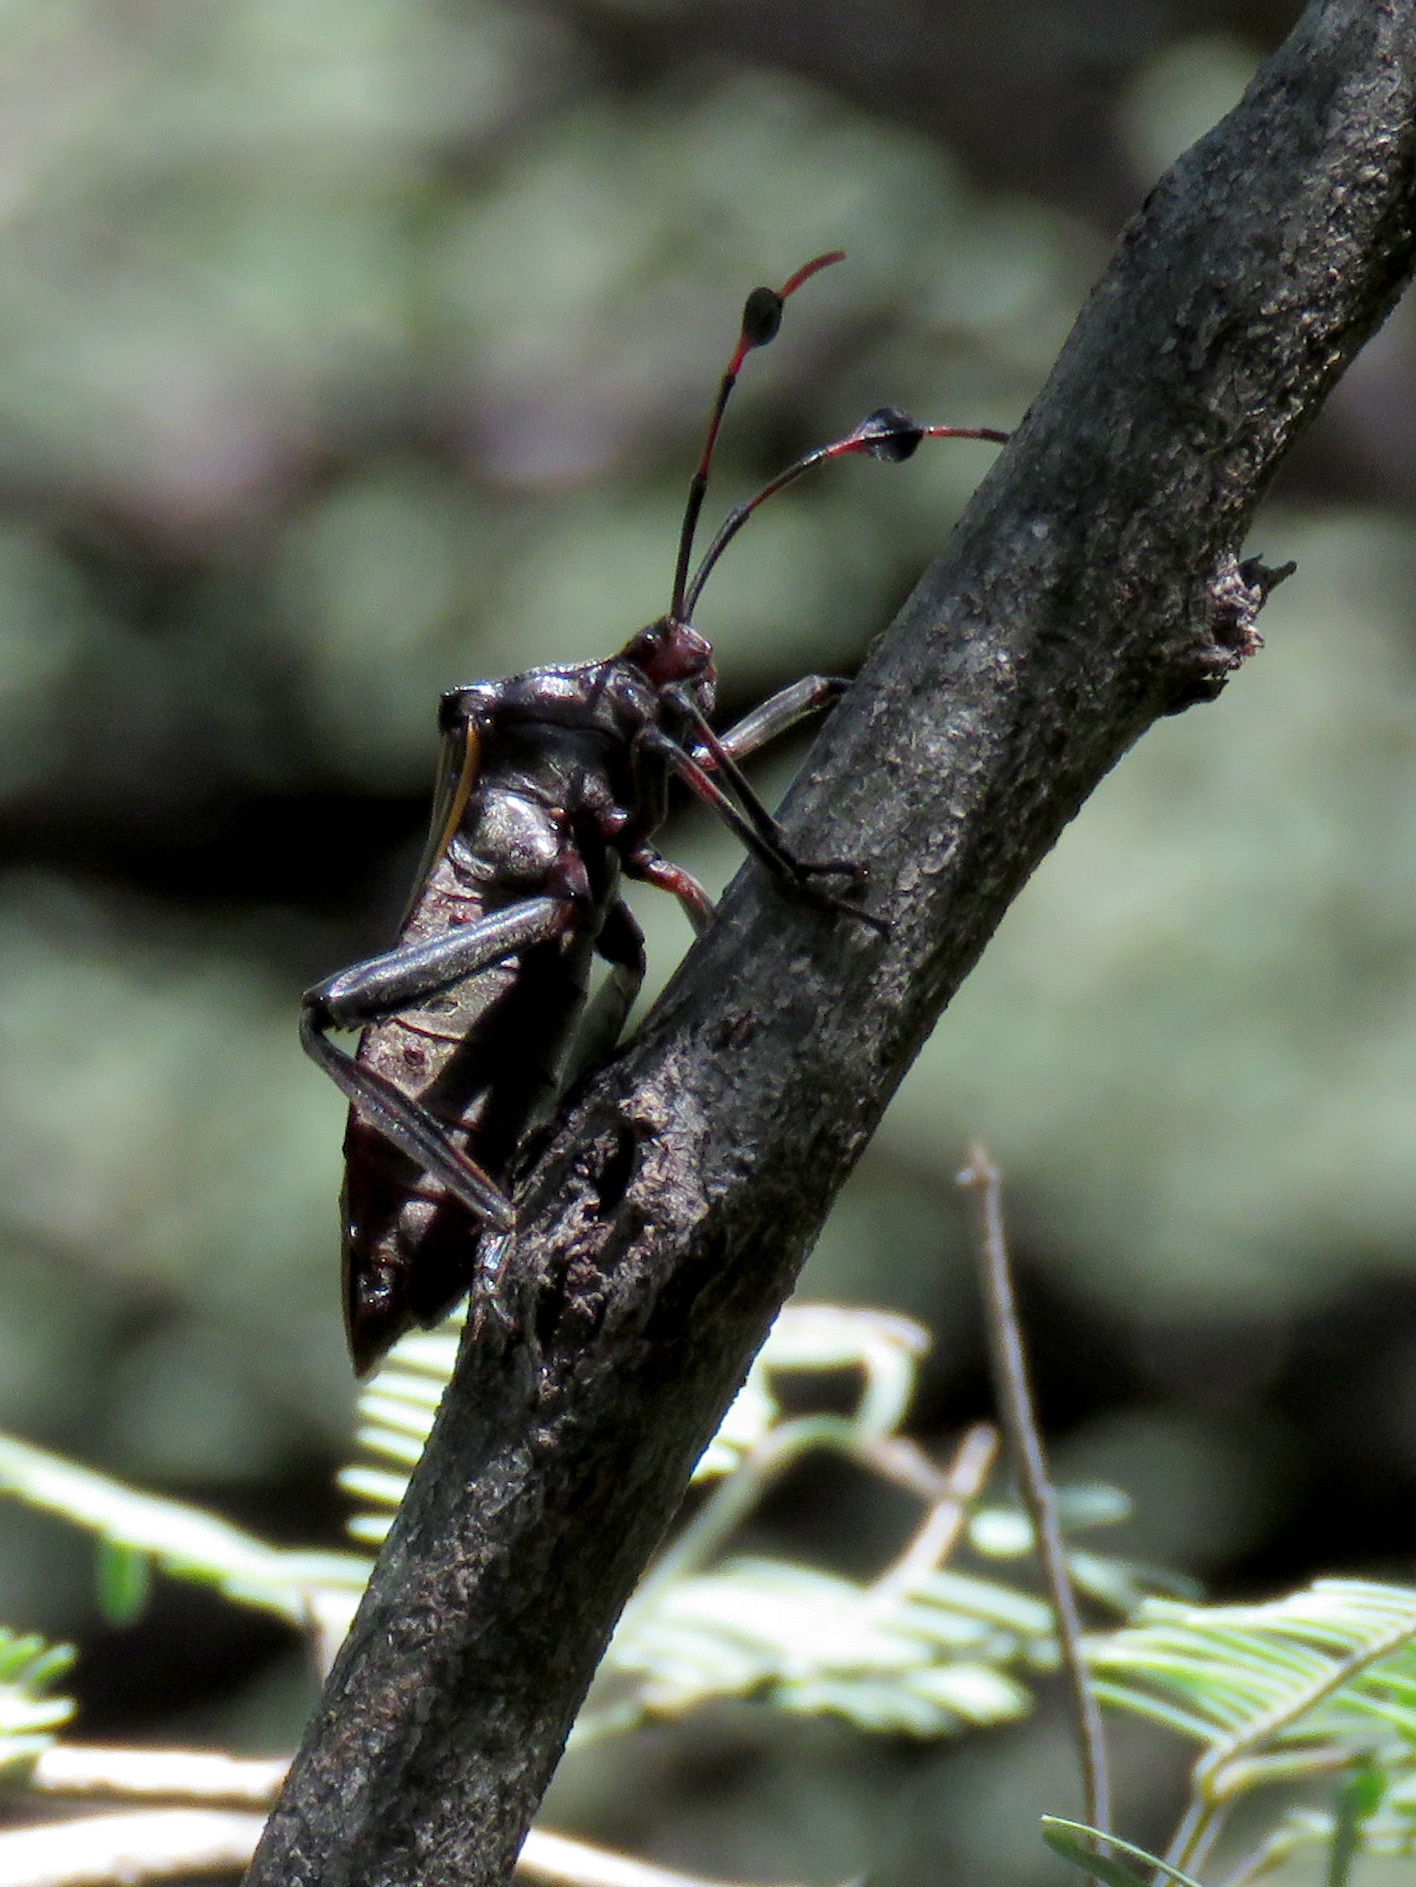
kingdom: Animalia
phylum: Arthropoda
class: Insecta
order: Hemiptera
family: Coreidae
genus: Thasus
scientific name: Thasus neocalifornicus
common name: Giant mesquite bug
